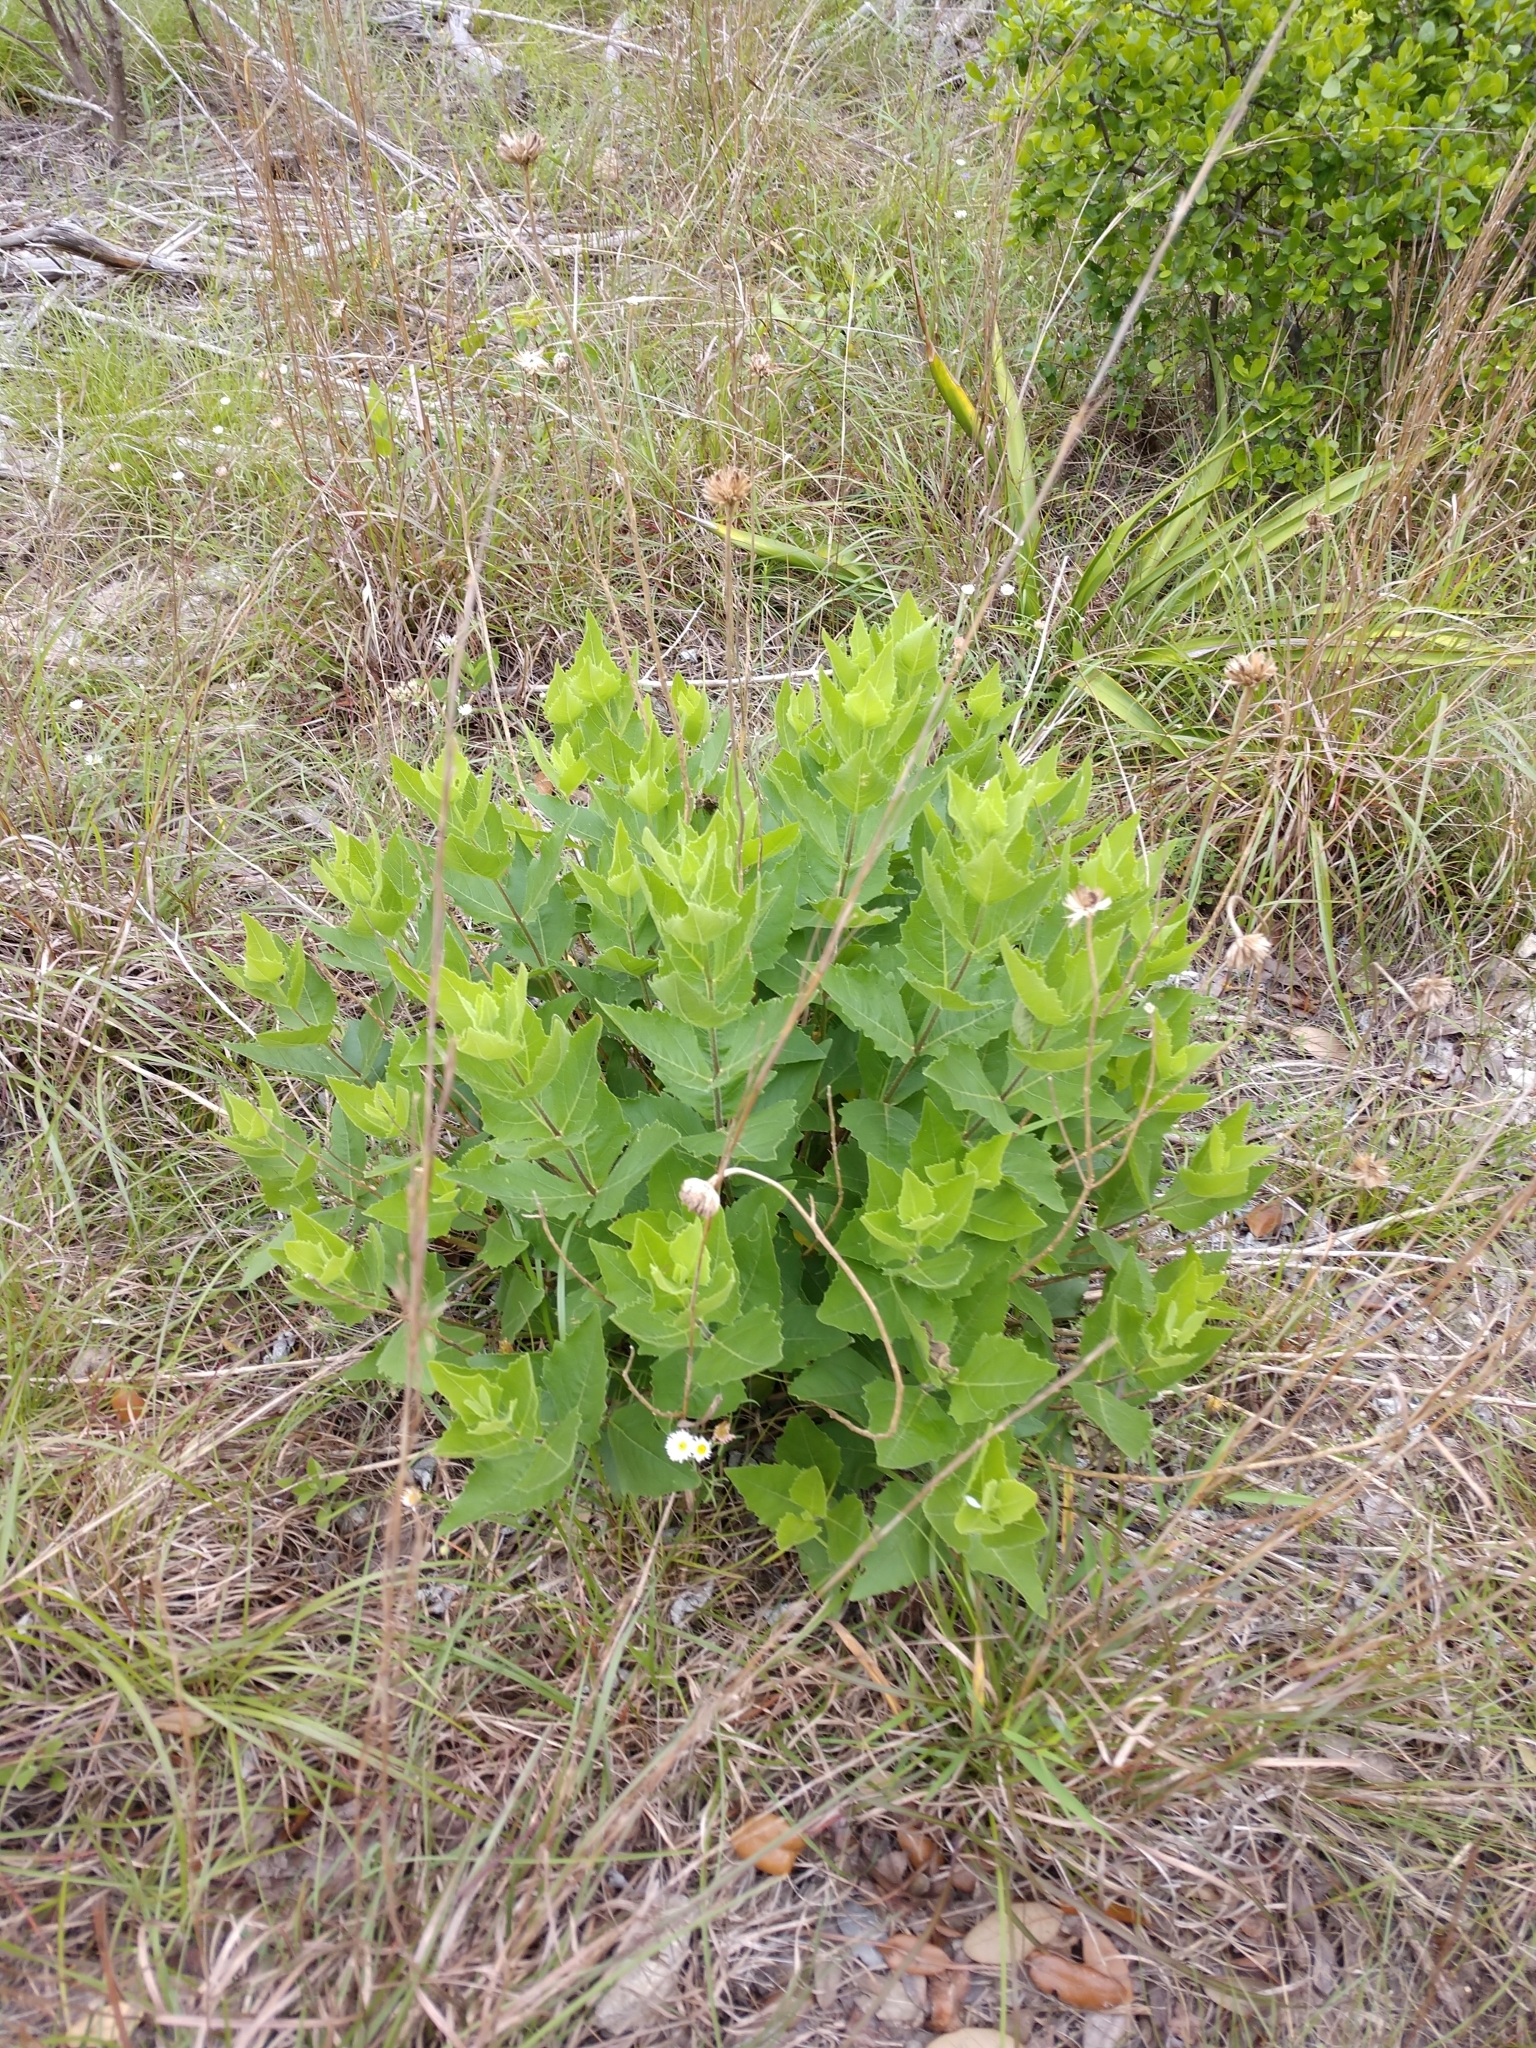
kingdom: Plantae
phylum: Tracheophyta
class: Magnoliopsida
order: Asterales
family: Asteraceae
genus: Verbesina
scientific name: Verbesina lindheimeri
